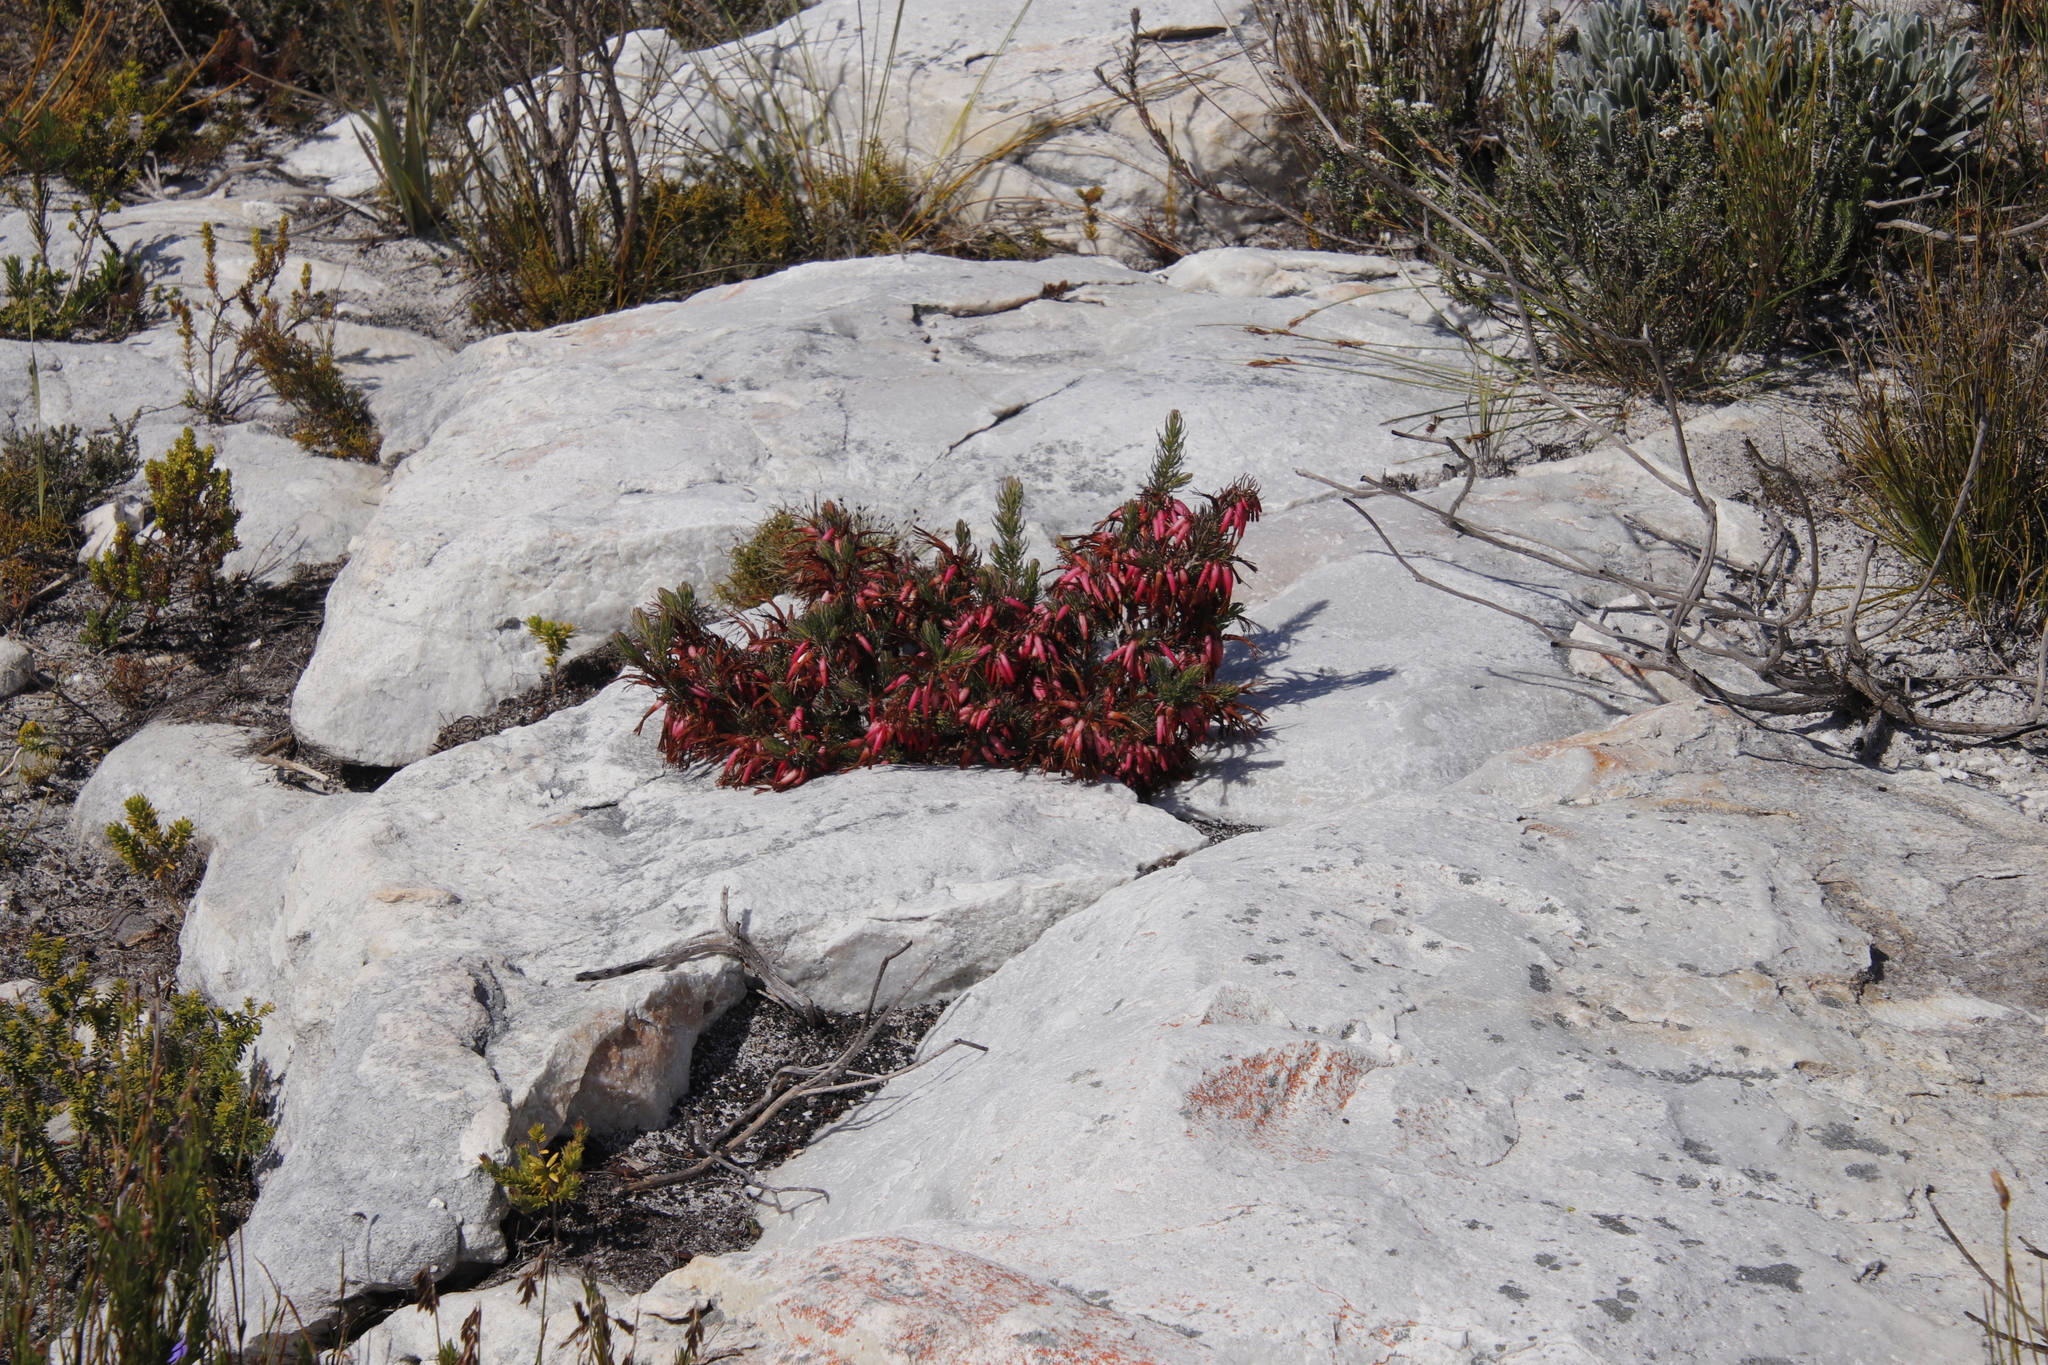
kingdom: Plantae
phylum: Tracheophyta
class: Magnoliopsida
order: Ericales
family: Ericaceae
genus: Erica
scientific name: Erica plukenetii
